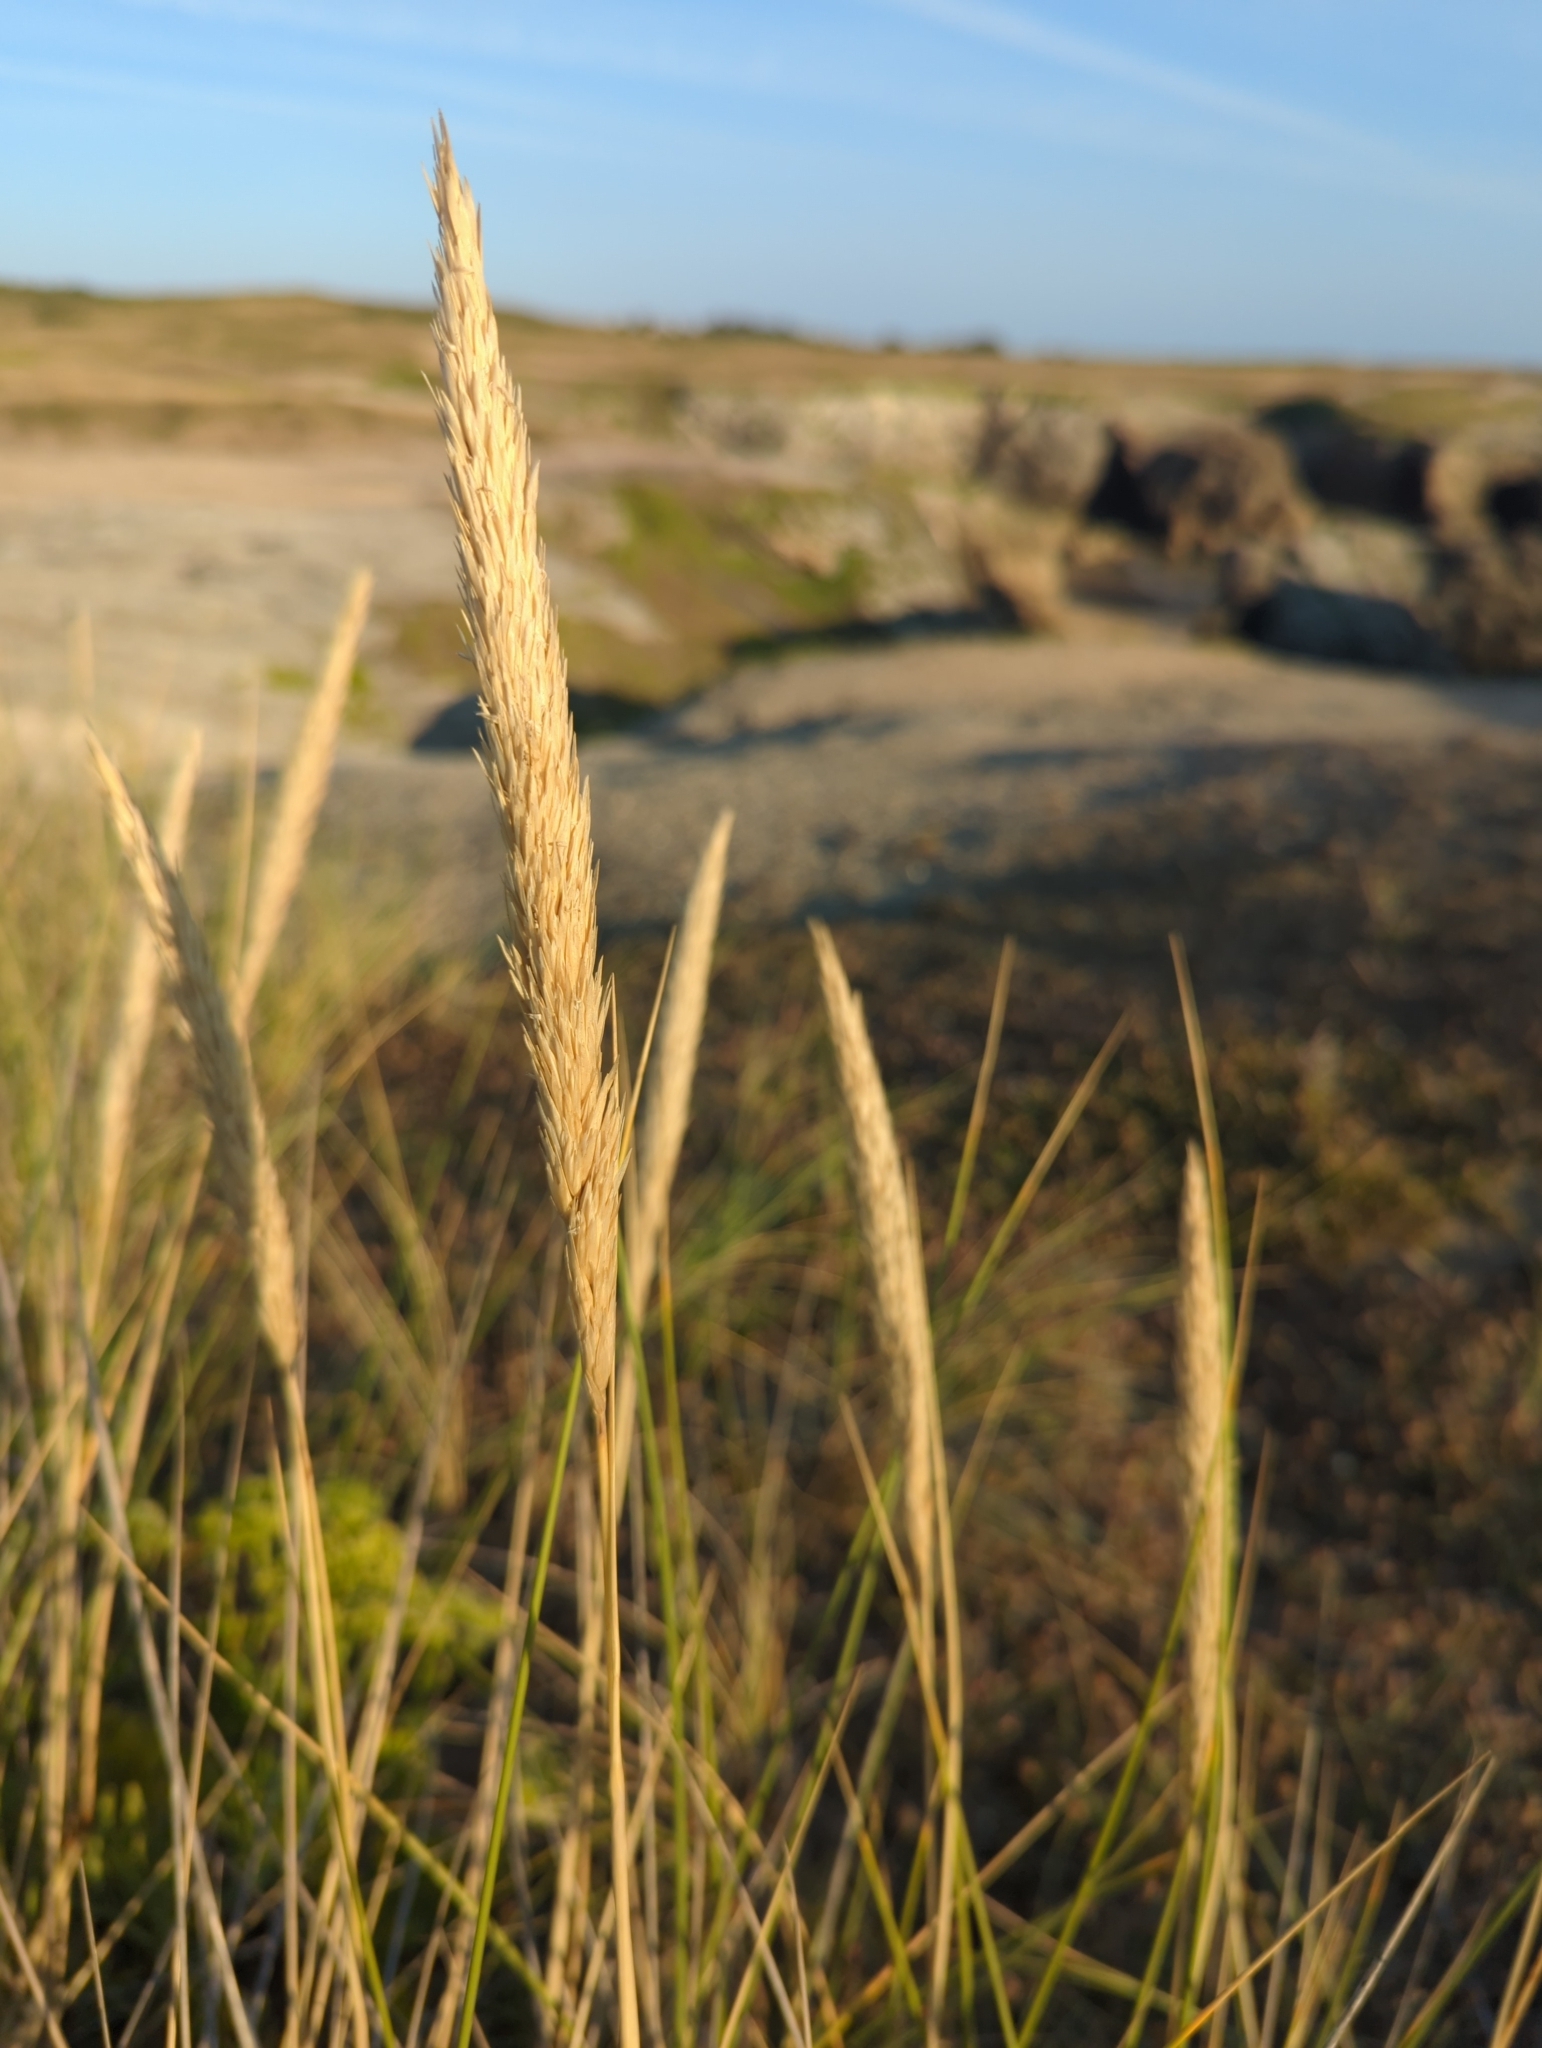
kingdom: Plantae
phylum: Tracheophyta
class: Liliopsida
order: Poales
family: Poaceae
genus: Calamagrostis
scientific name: Calamagrostis arenaria
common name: European beachgrass
